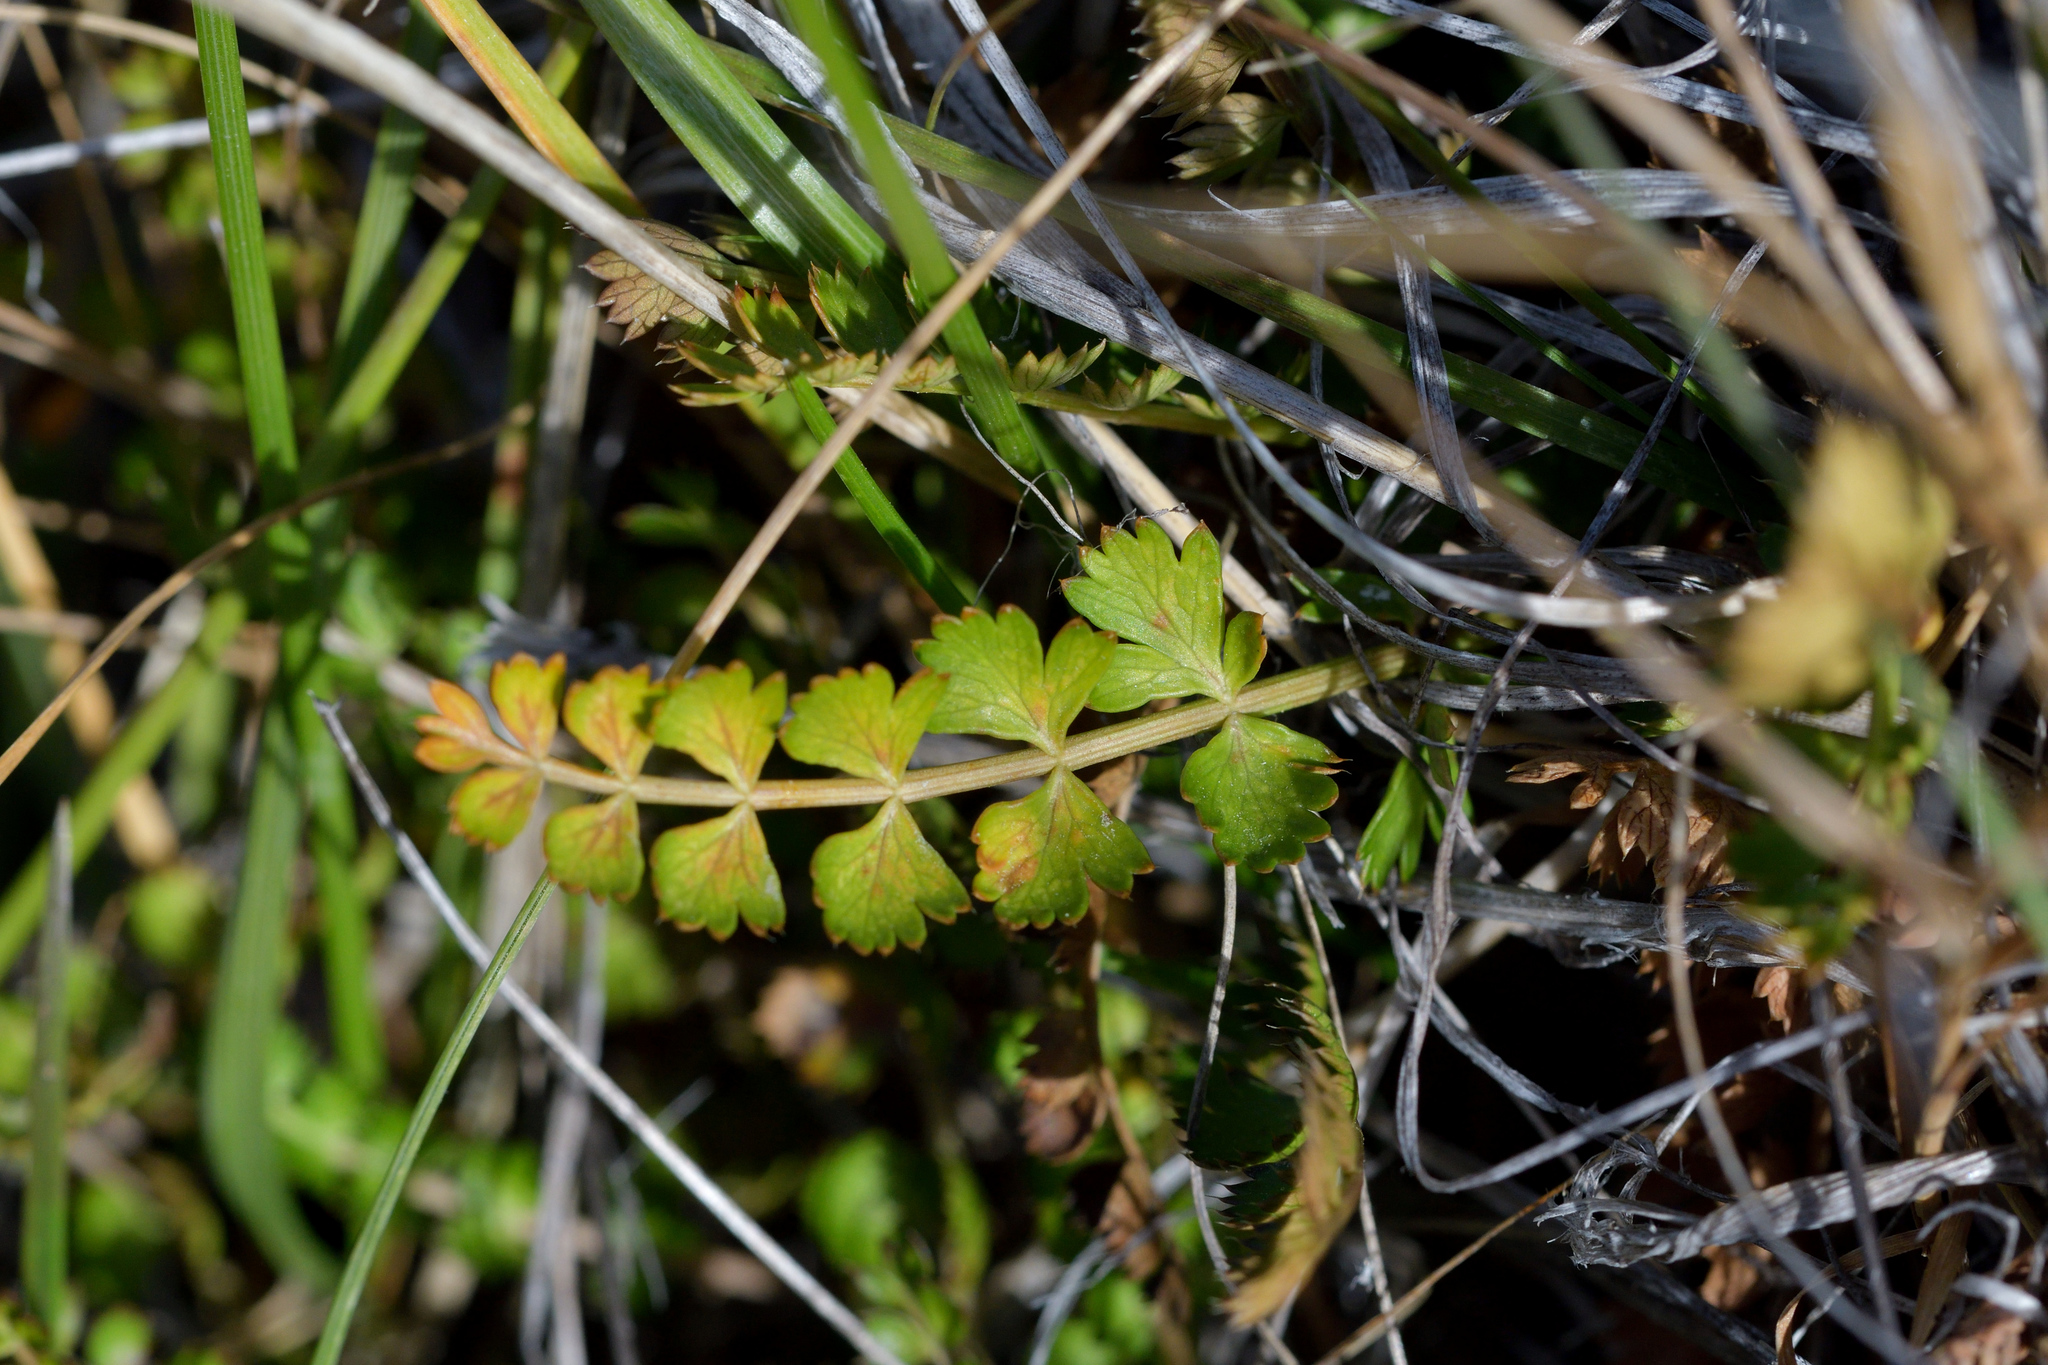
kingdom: Plantae
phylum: Tracheophyta
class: Magnoliopsida
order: Apiales
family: Apiaceae
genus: Anisotome
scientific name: Anisotome aromatica
